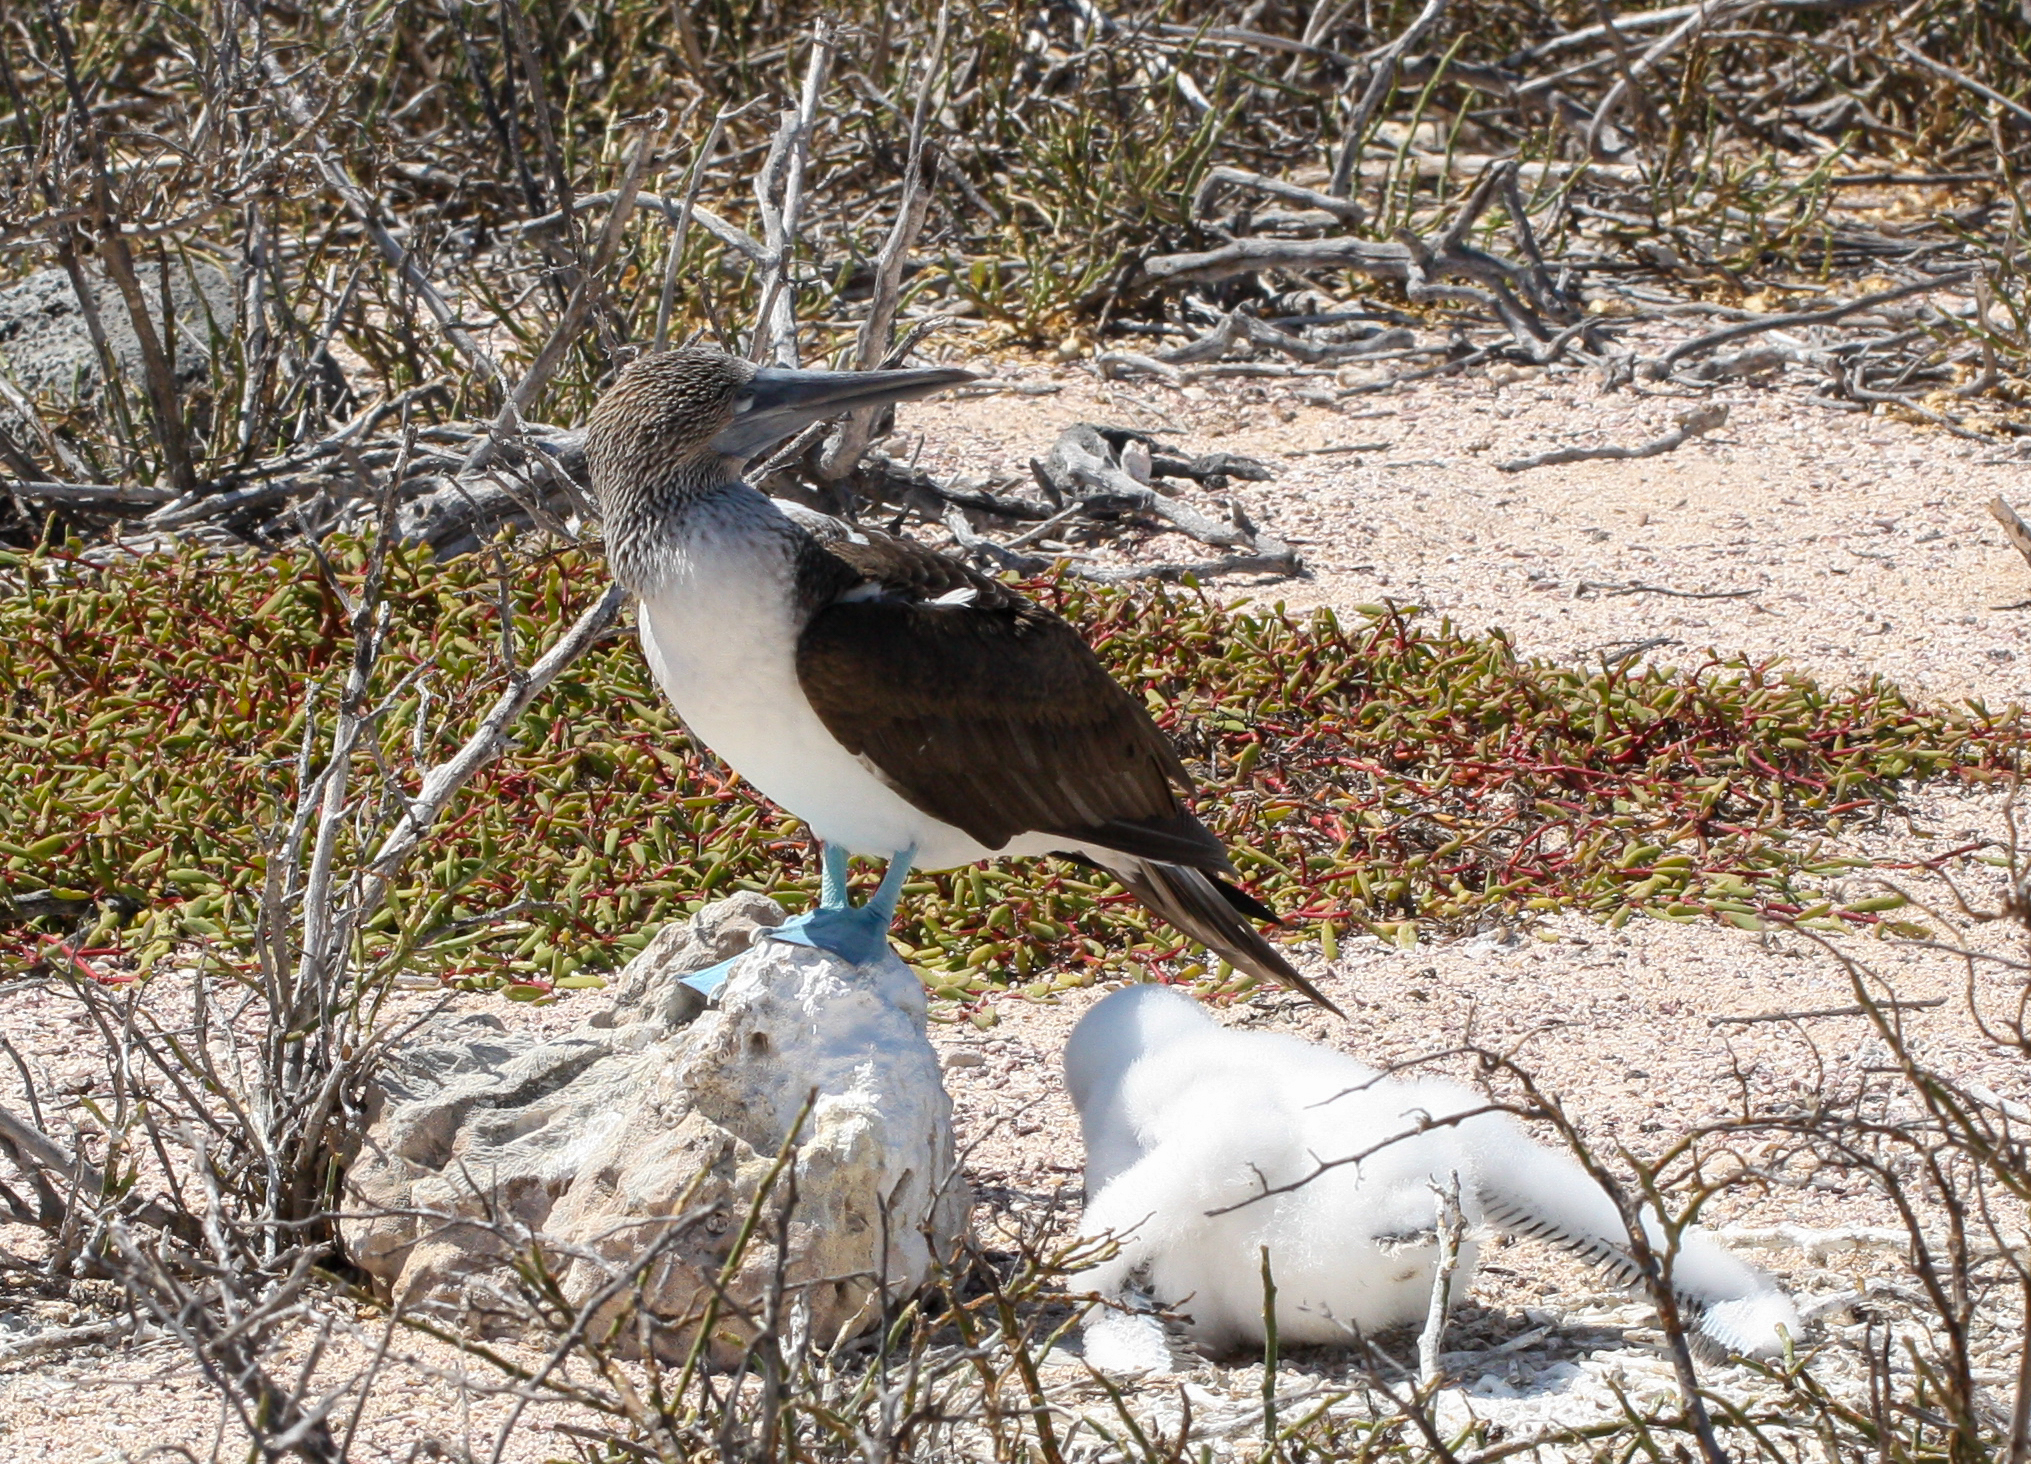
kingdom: Animalia
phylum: Chordata
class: Aves
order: Suliformes
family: Sulidae
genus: Sula
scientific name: Sula nebouxii
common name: Blue-footed booby
